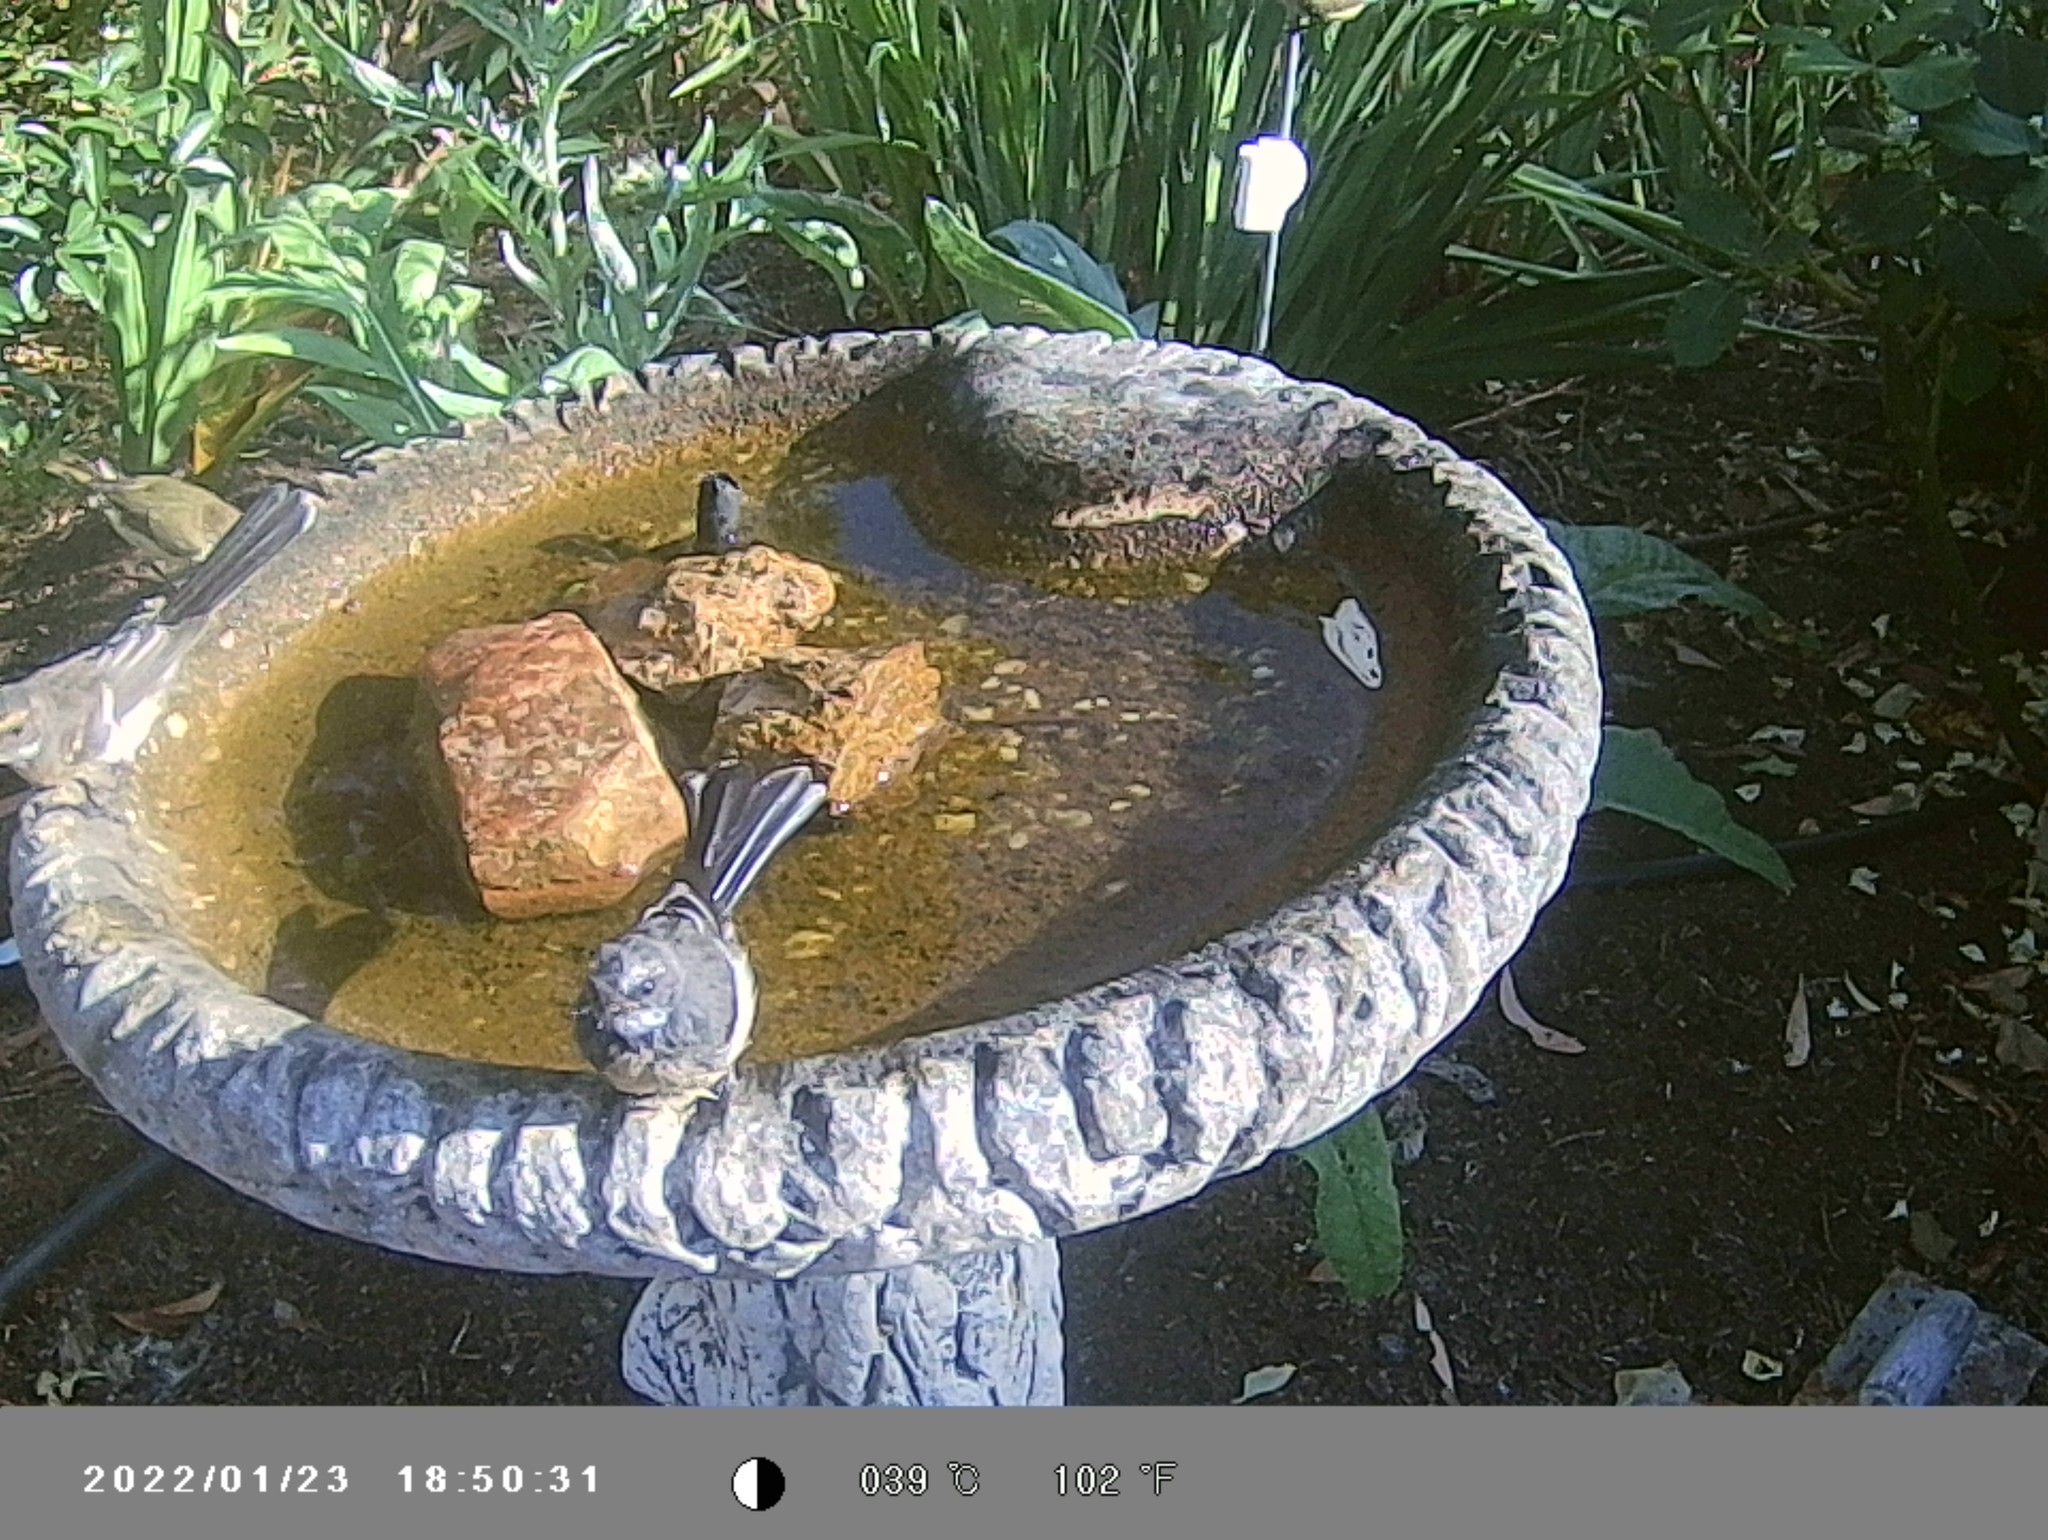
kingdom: Animalia
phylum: Chordata
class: Aves
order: Passeriformes
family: Rhipiduridae
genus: Rhipidura
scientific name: Rhipidura albiscapa
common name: Grey fantail
